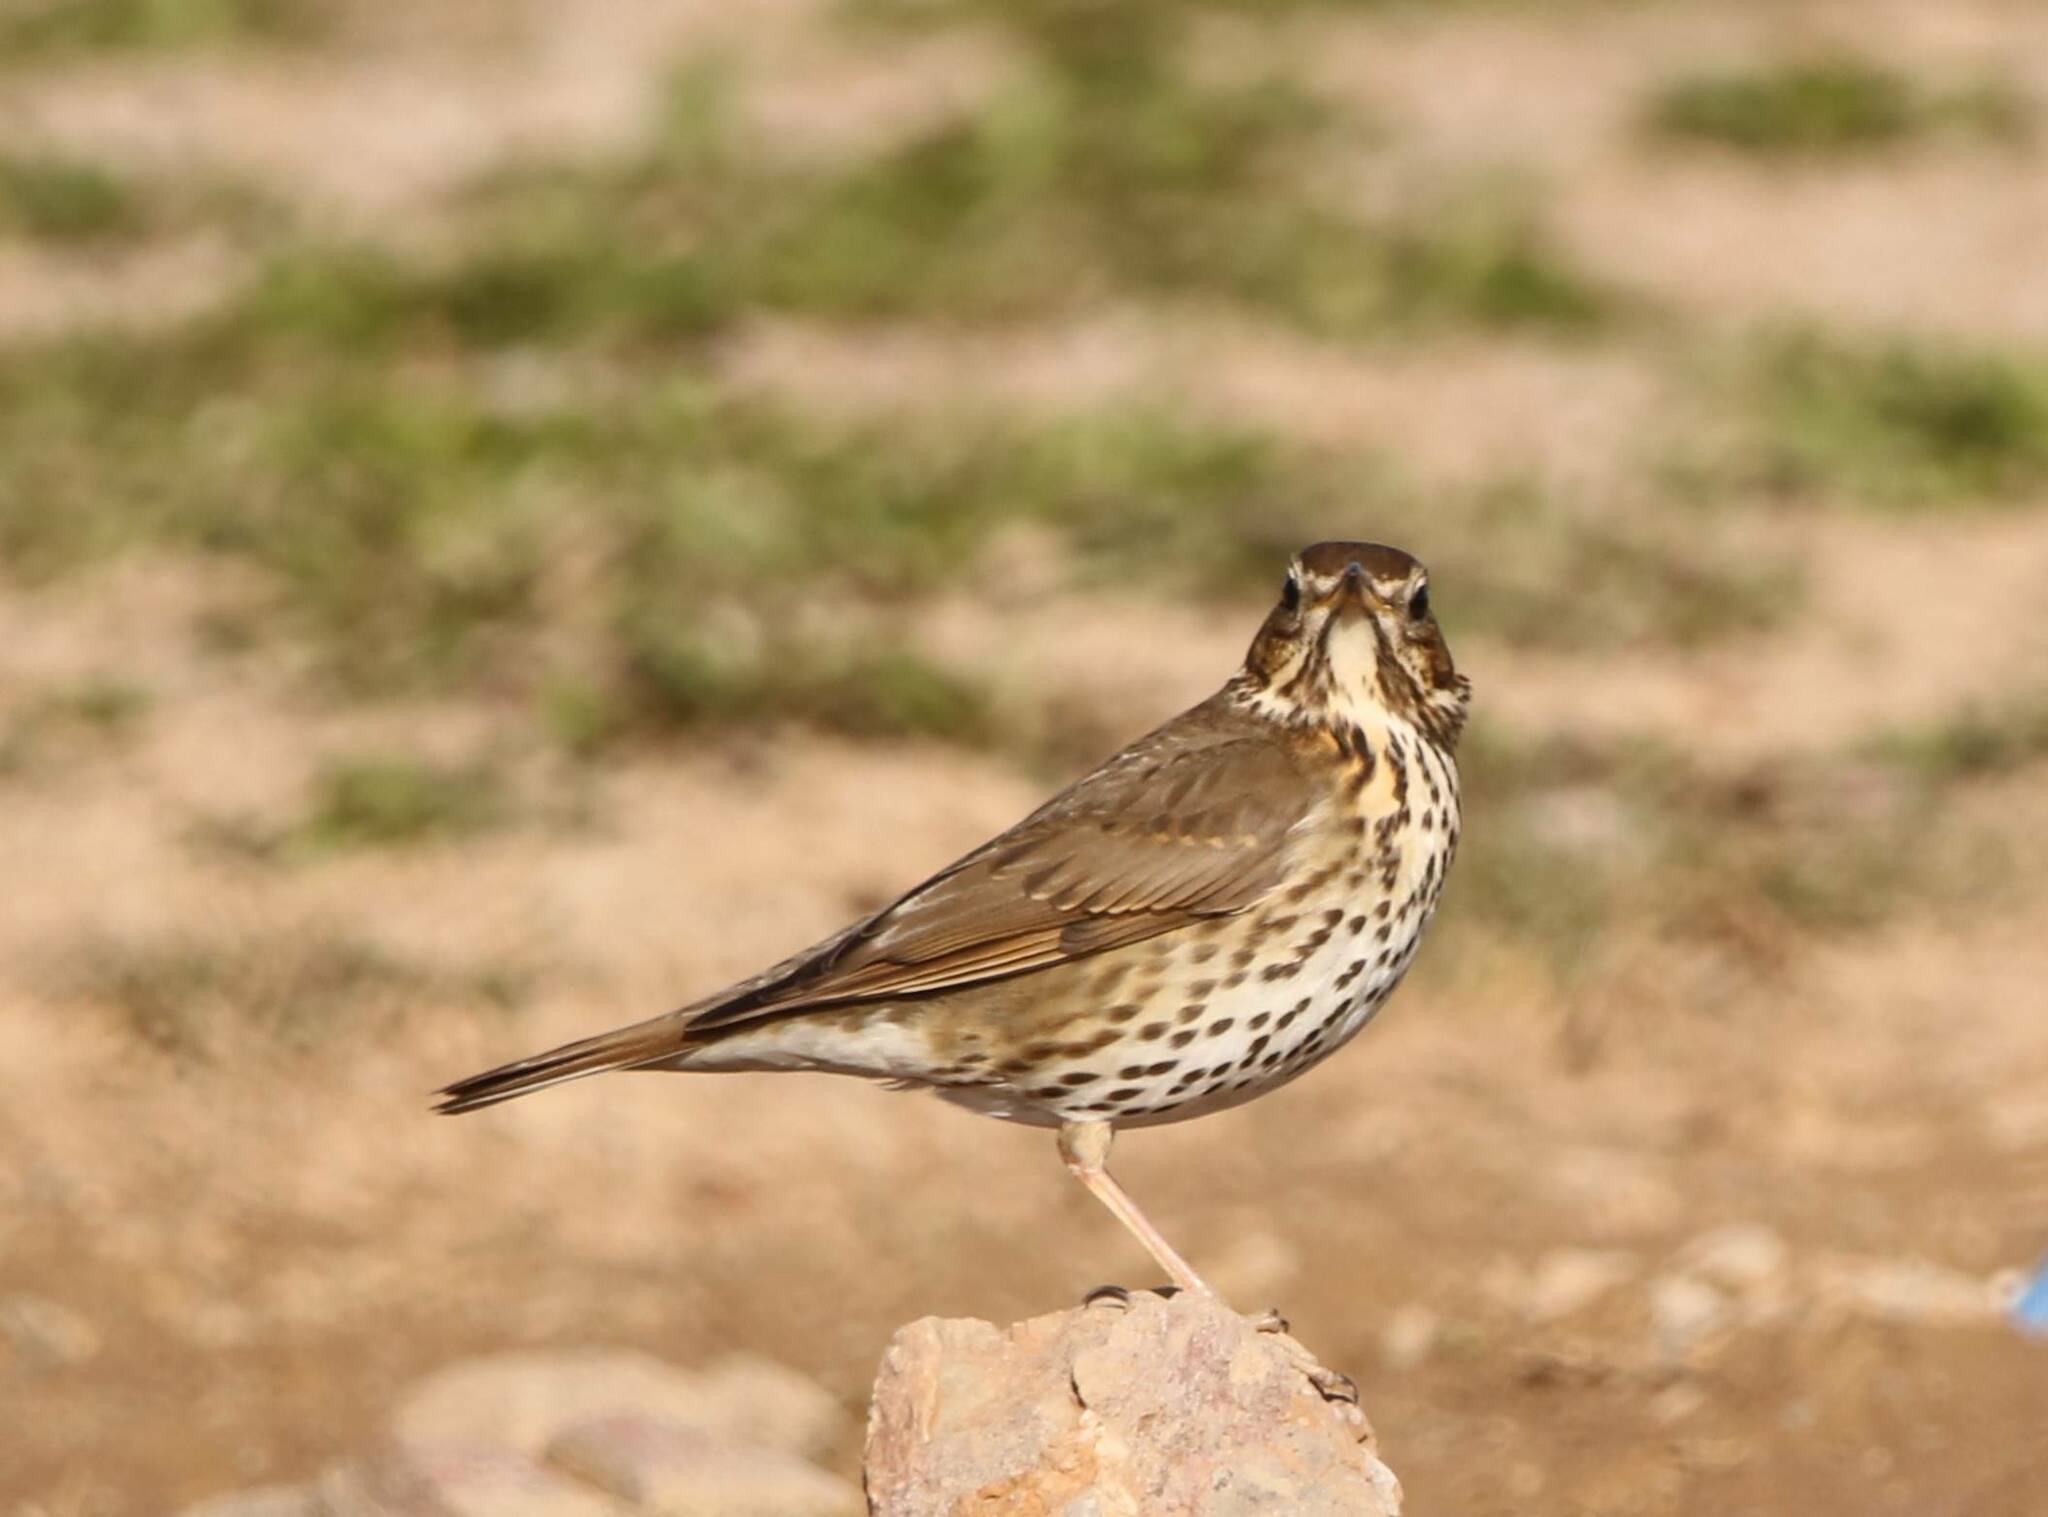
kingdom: Animalia
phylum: Chordata
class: Aves
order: Passeriformes
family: Turdidae
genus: Turdus
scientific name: Turdus philomelos
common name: Song thrush
